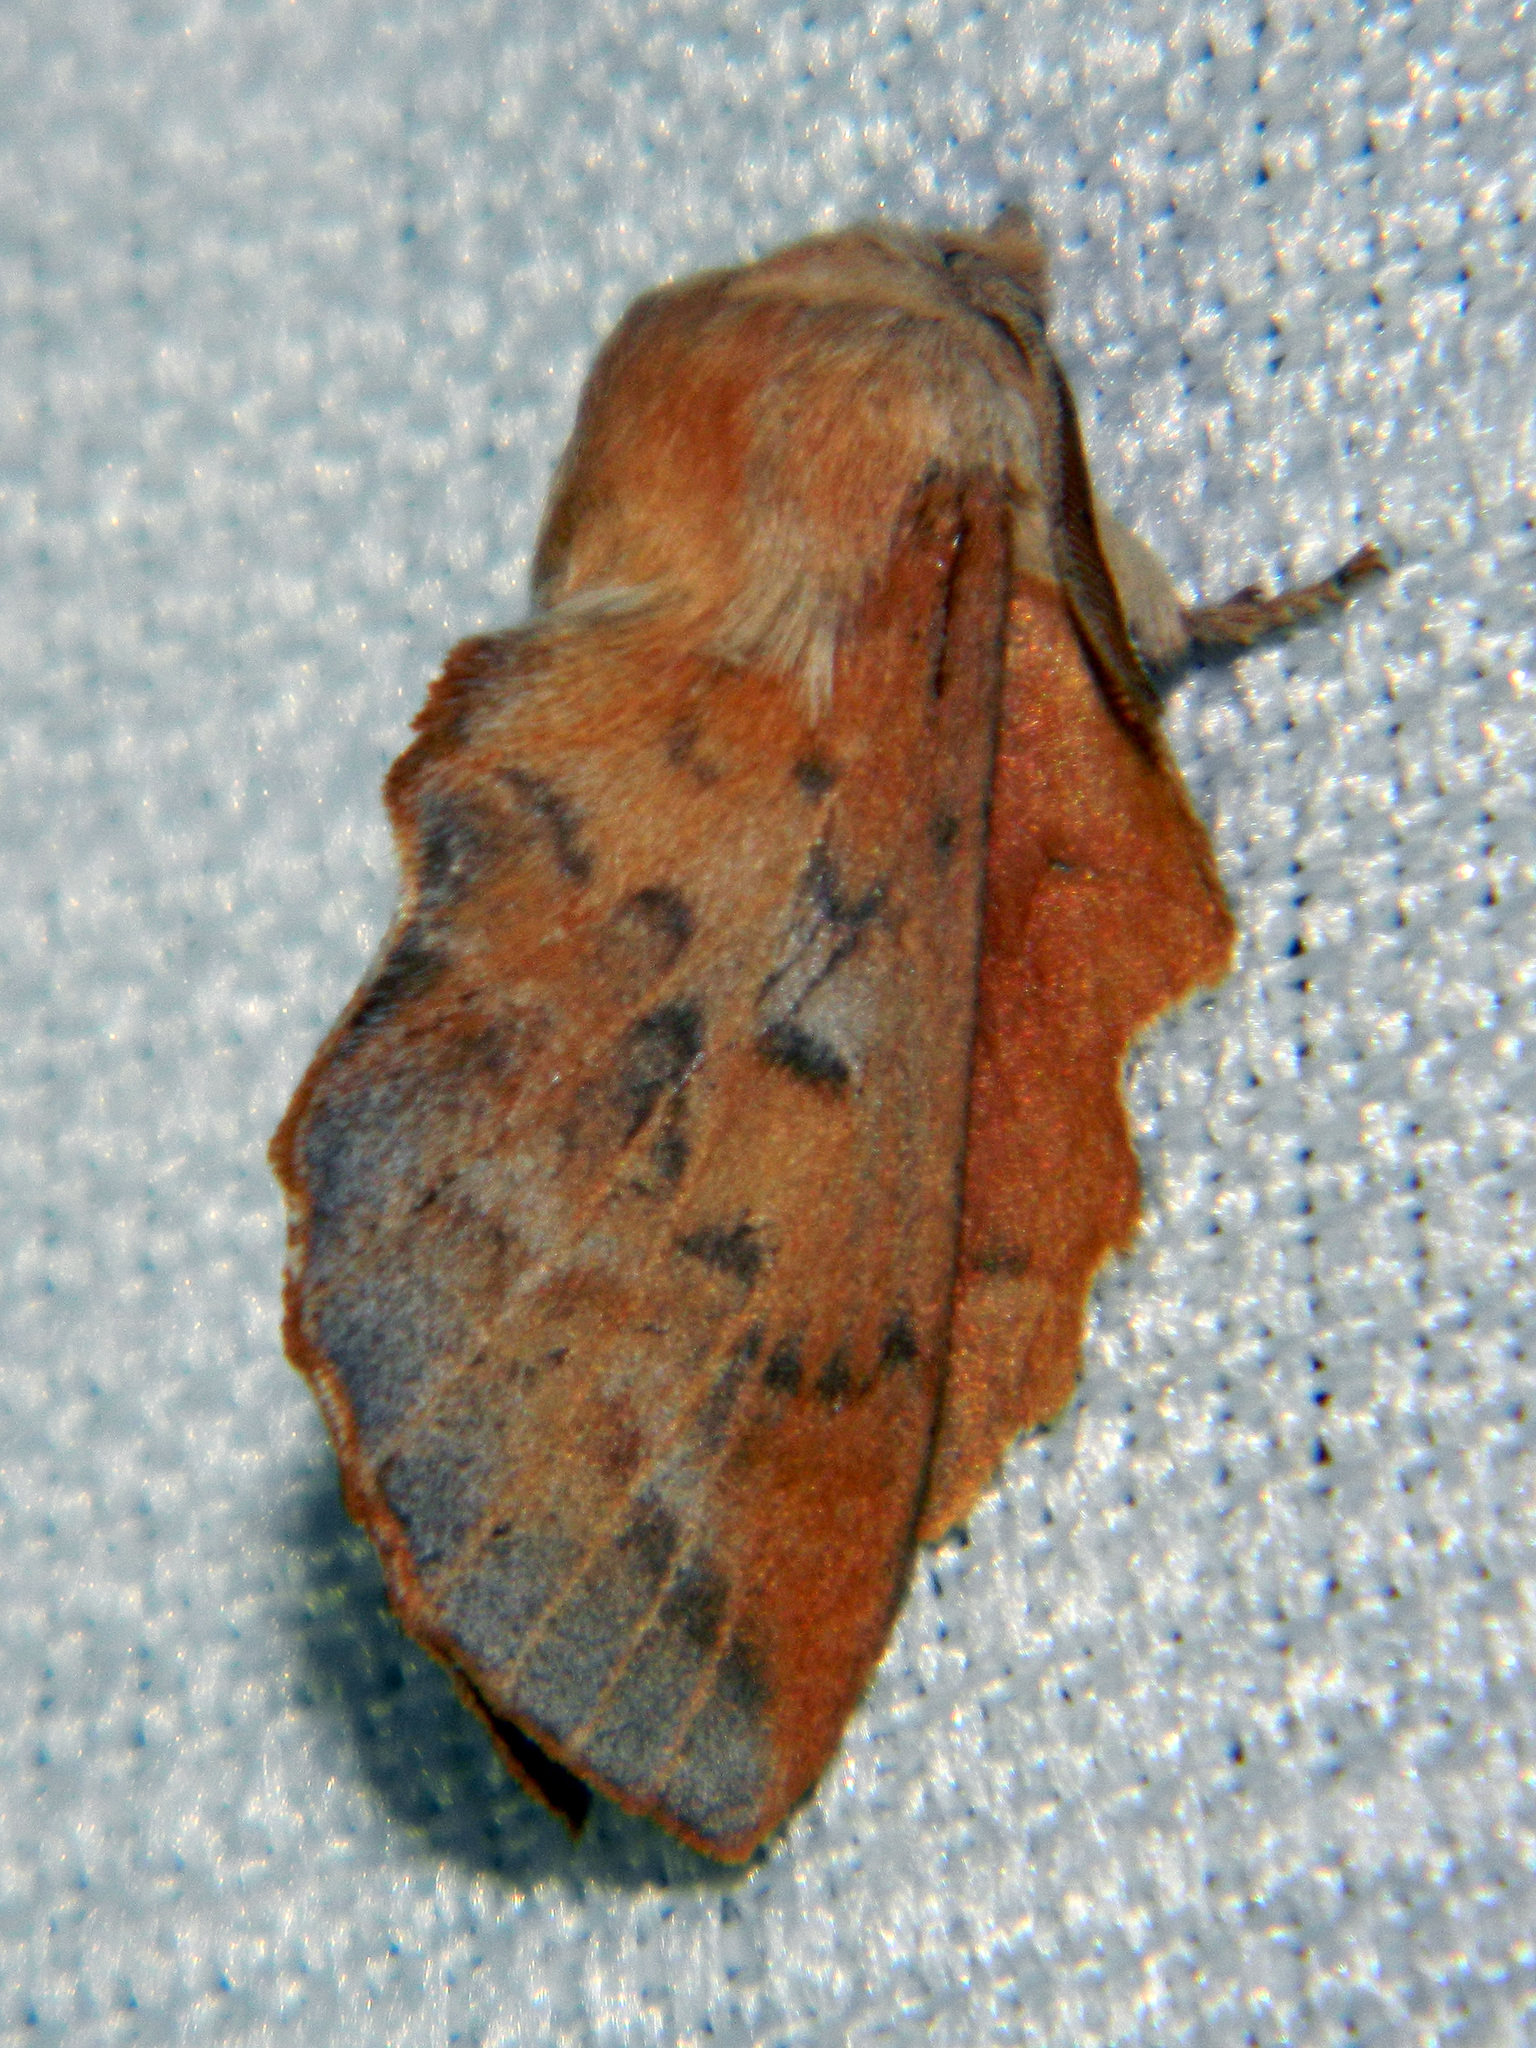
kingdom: Animalia
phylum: Arthropoda
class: Insecta
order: Lepidoptera
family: Lasiocampidae
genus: Phyllodesma
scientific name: Phyllodesma americana
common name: American lappet moth
